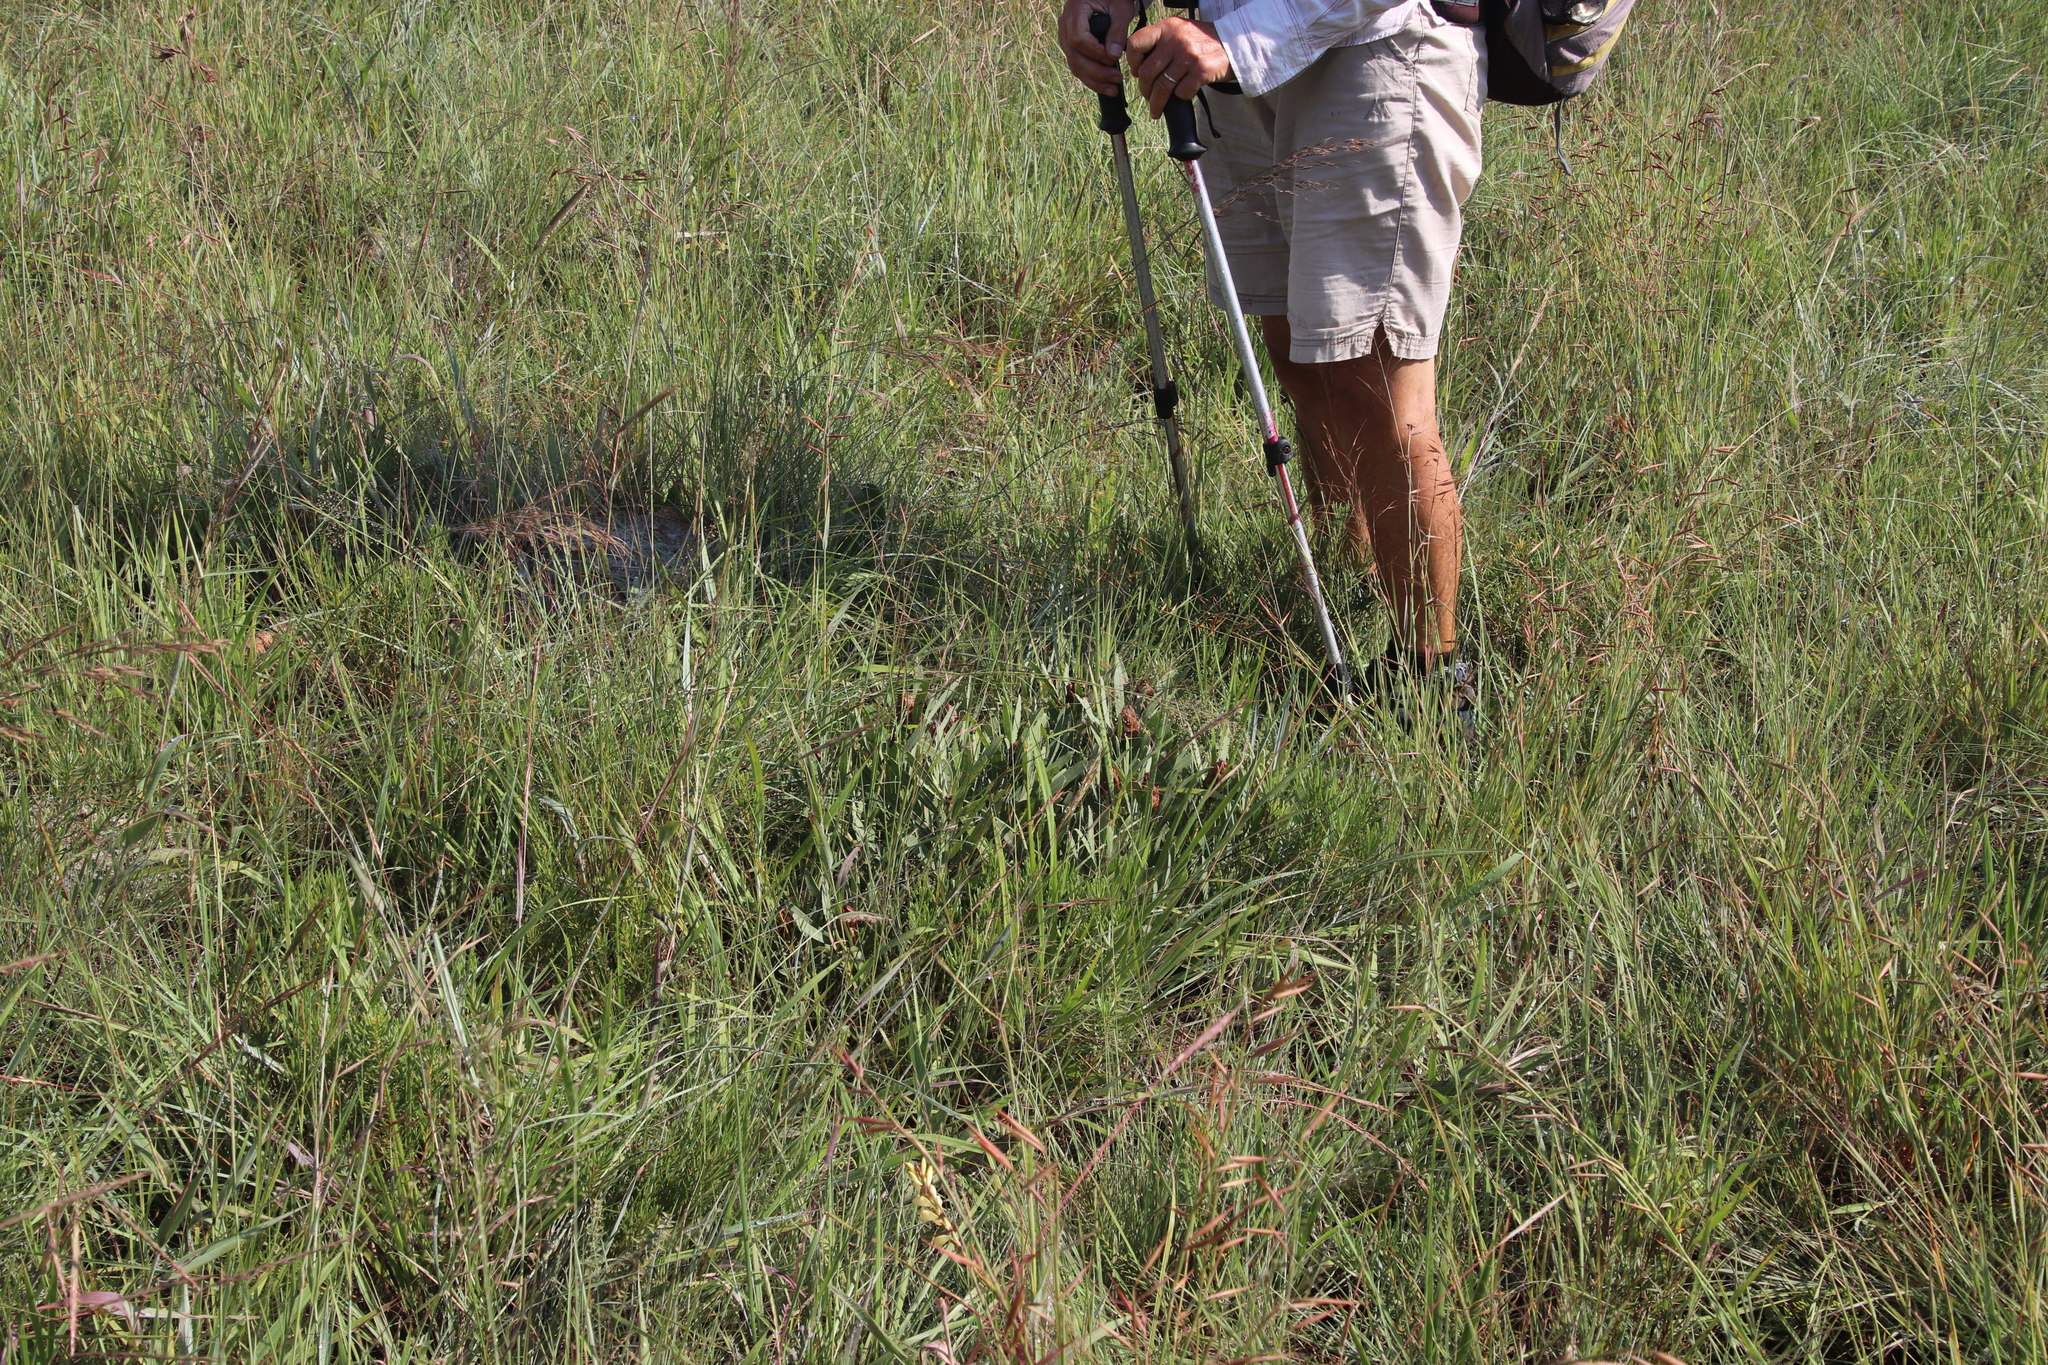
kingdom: Plantae
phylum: Tracheophyta
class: Magnoliopsida
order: Proteales
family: Proteaceae
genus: Protea
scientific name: Protea simplex
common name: Dwarf grassveld sugarbush
